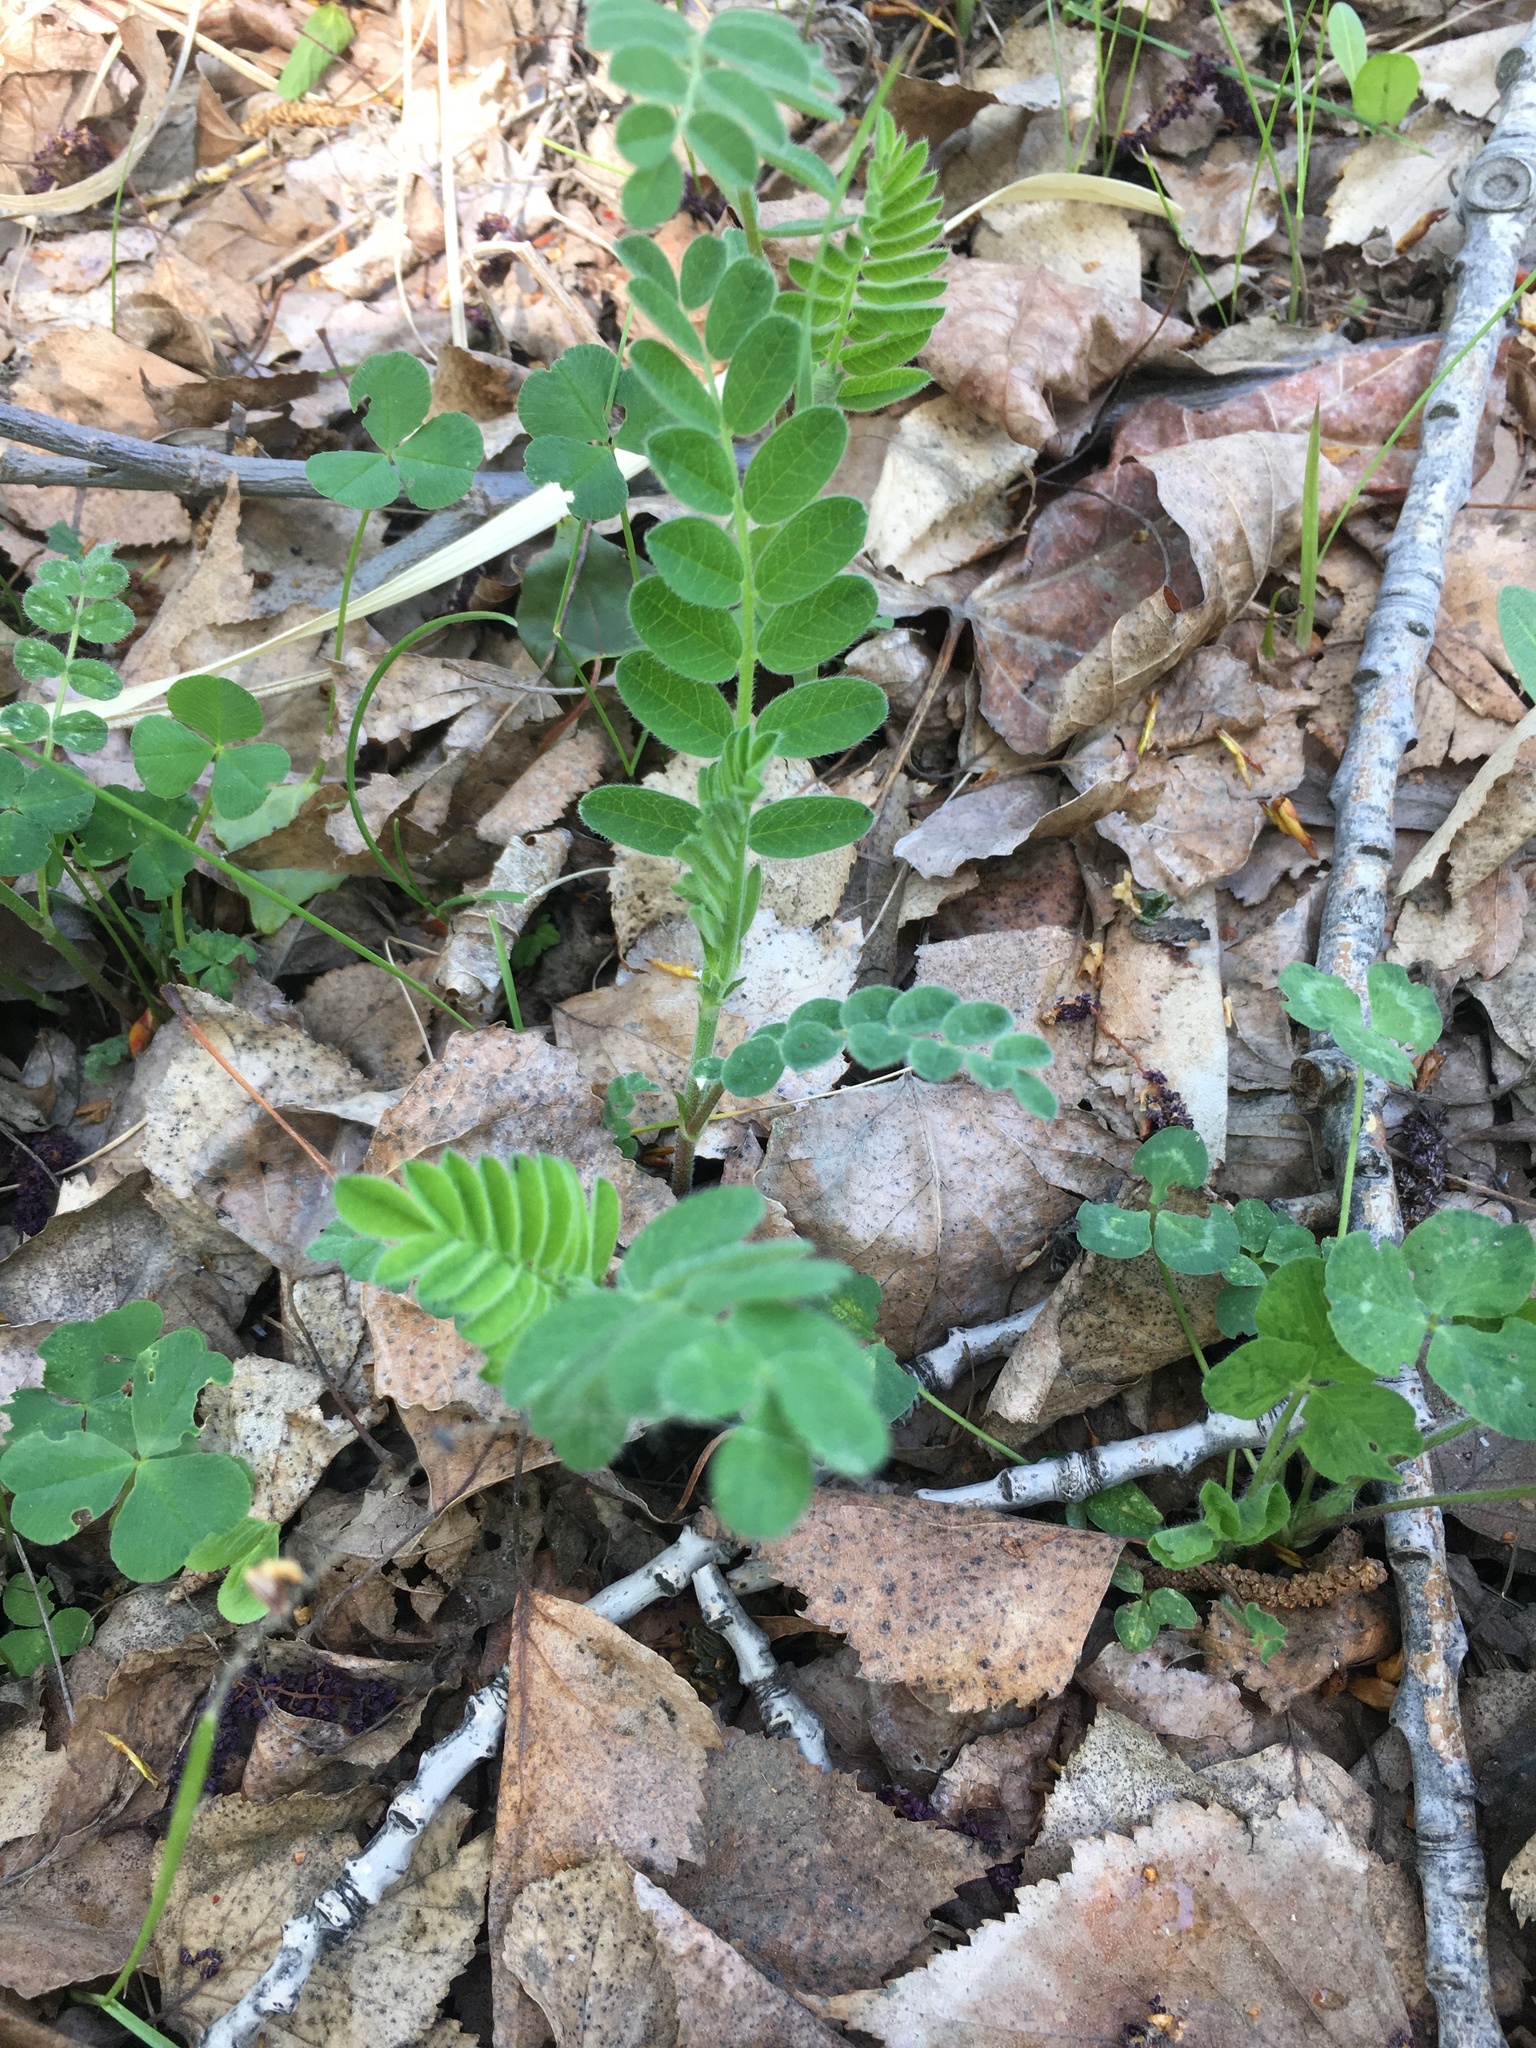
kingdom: Plantae
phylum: Tracheophyta
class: Magnoliopsida
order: Fabales
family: Fabaceae
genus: Astragalus
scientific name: Astragalus cicer
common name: Chick-pea milk-vetch
